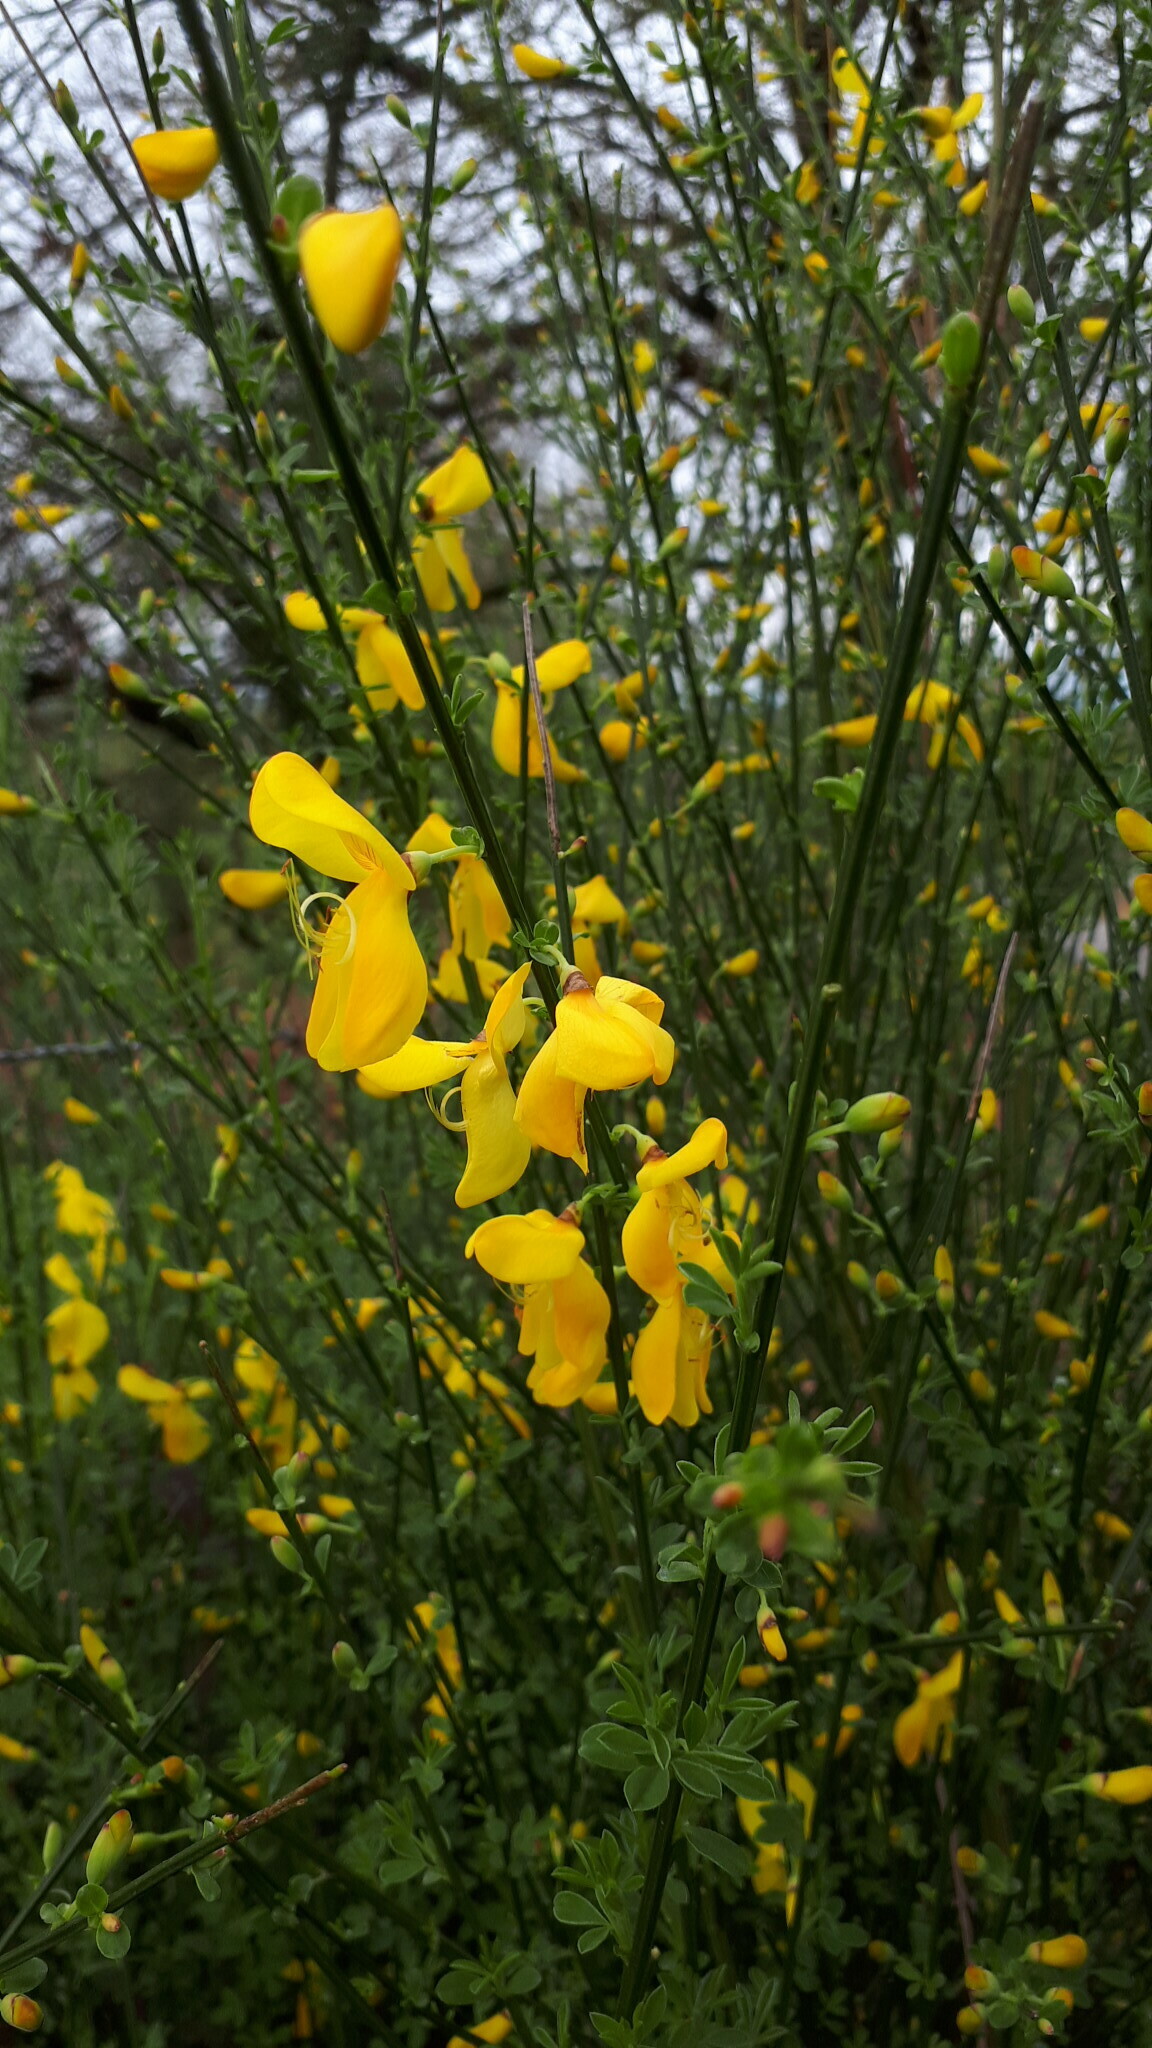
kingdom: Plantae
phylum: Tracheophyta
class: Magnoliopsida
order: Fabales
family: Fabaceae
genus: Cytisus
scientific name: Cytisus scoparius
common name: Scotch broom
